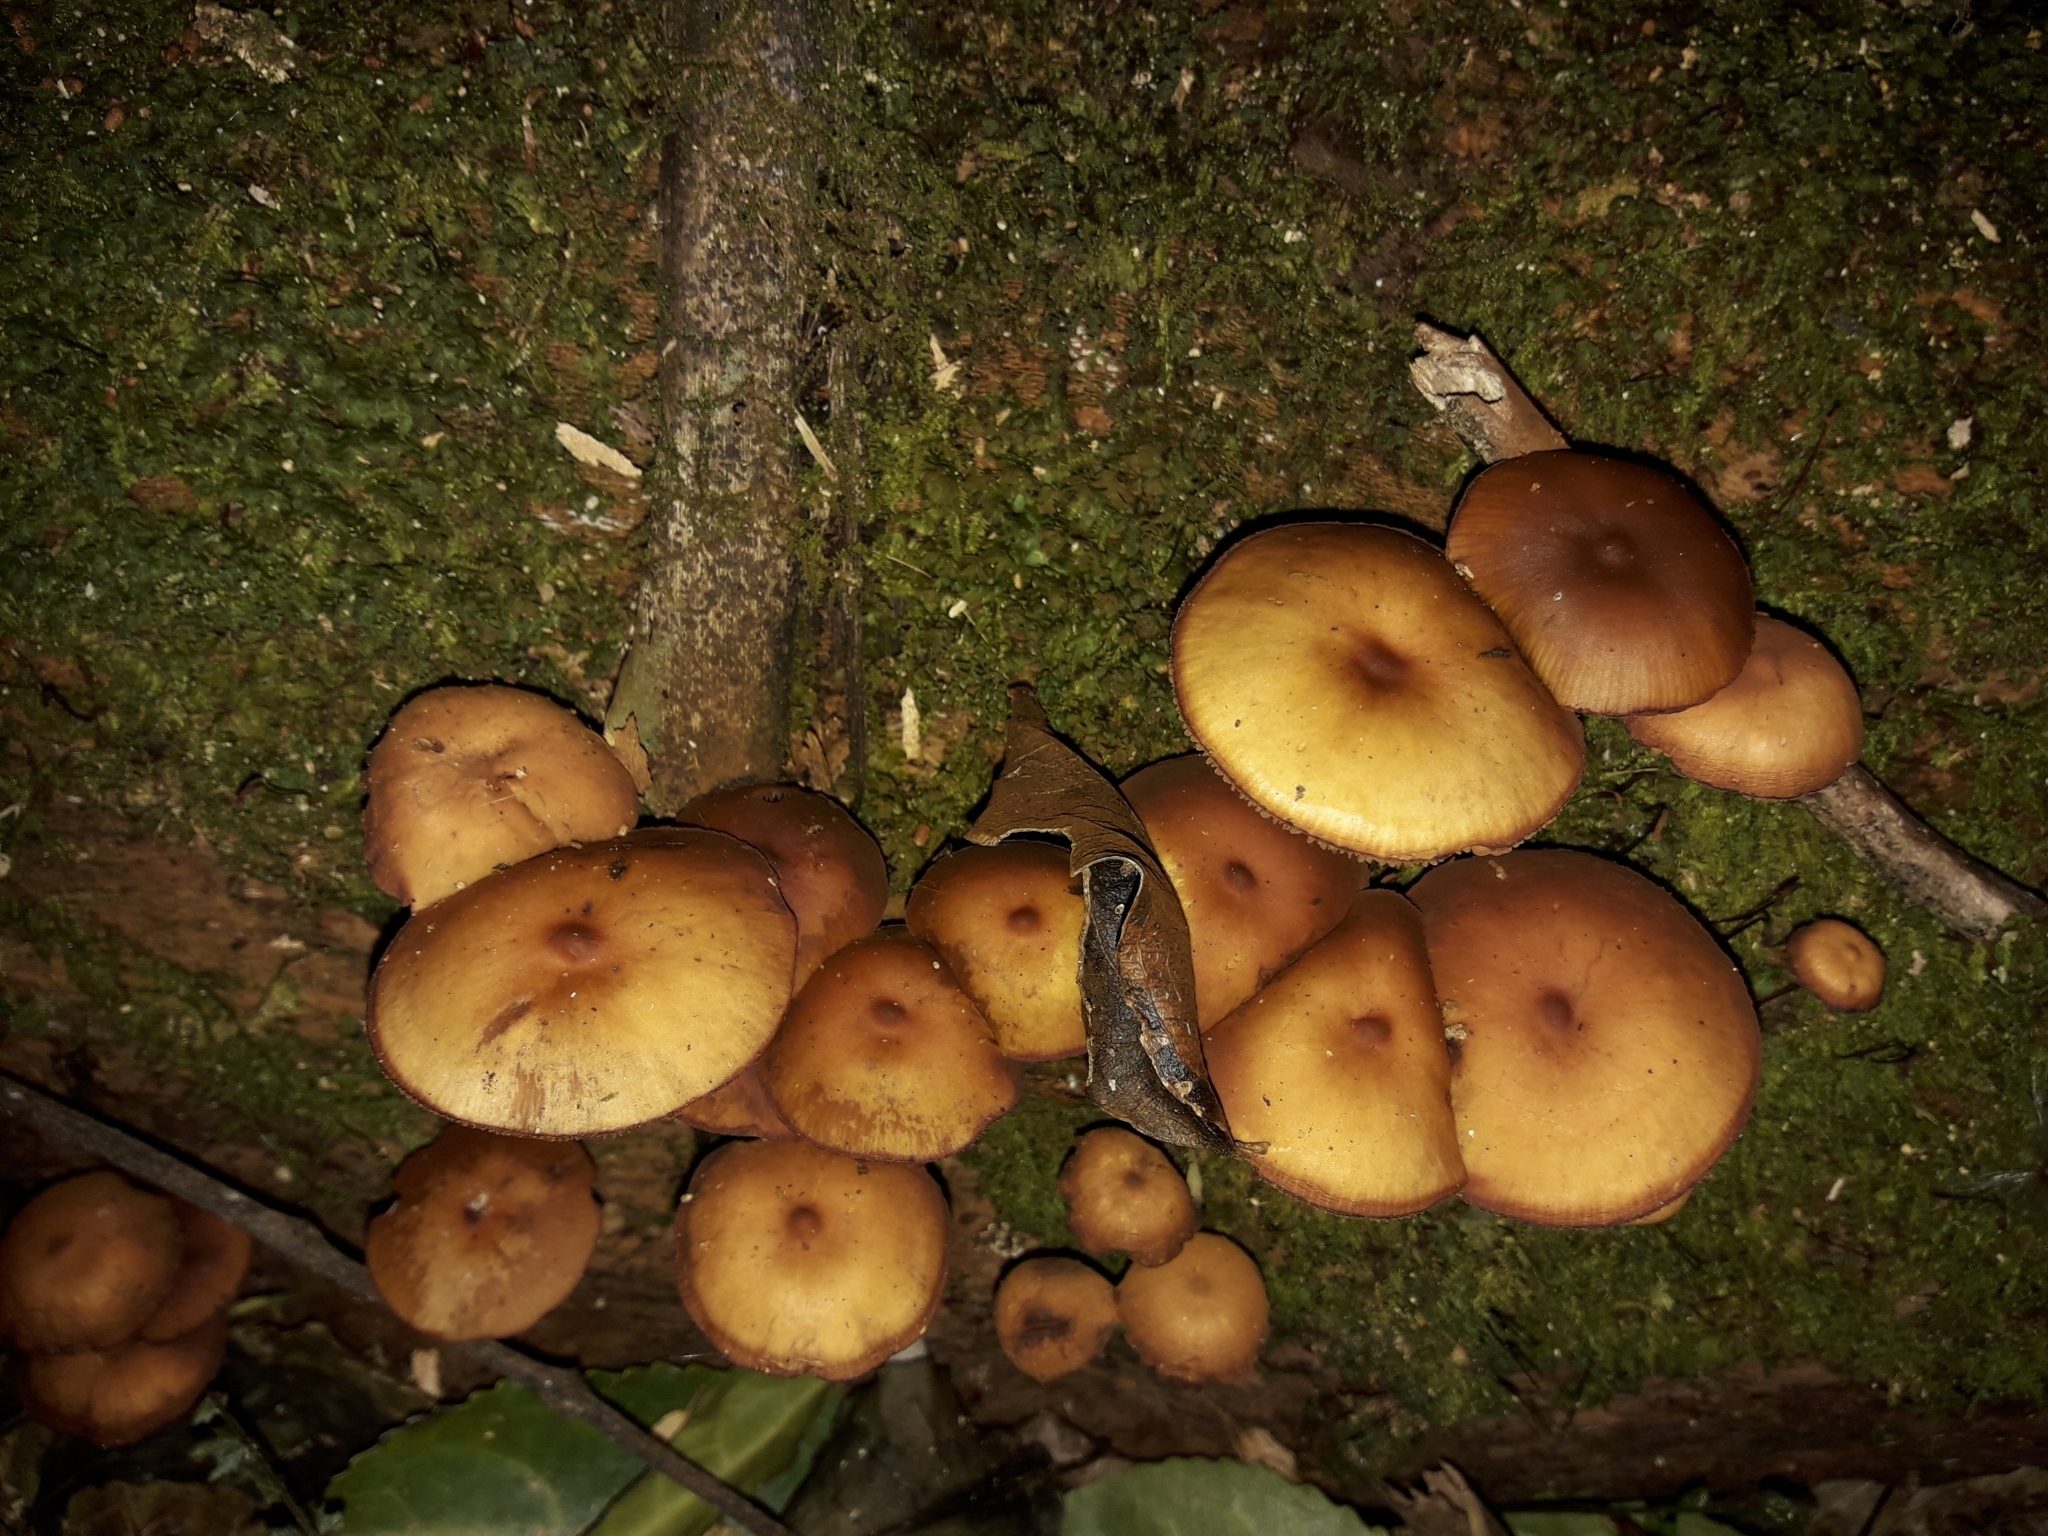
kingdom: Fungi
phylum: Basidiomycota
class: Agaricomycetes
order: Agaricales
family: Hymenogastraceae
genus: Galerina
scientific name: Galerina patagonica
